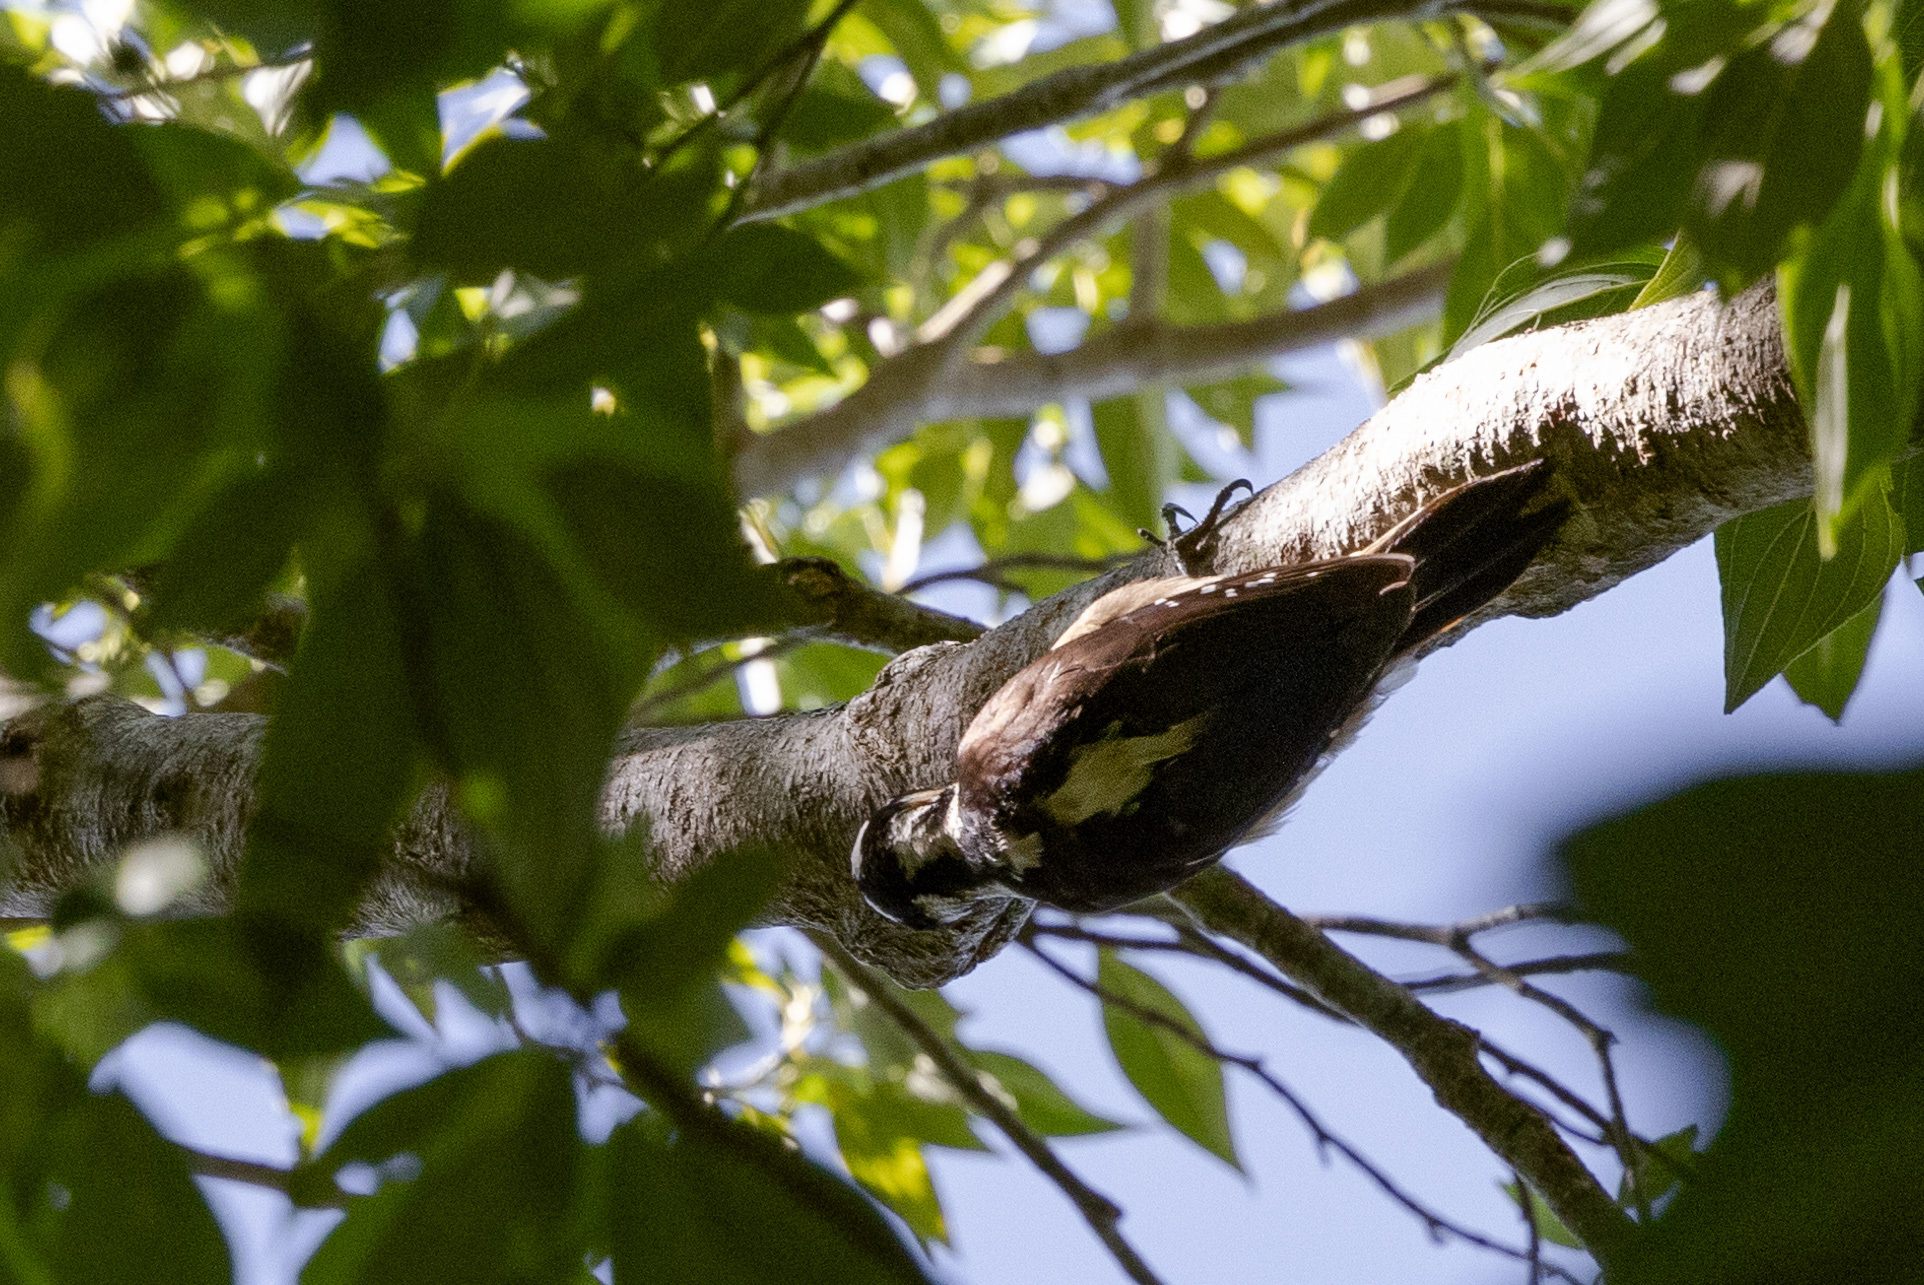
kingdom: Animalia
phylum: Chordata
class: Aves
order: Piciformes
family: Picidae
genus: Leuconotopicus
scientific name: Leuconotopicus villosus
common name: Hairy woodpecker
